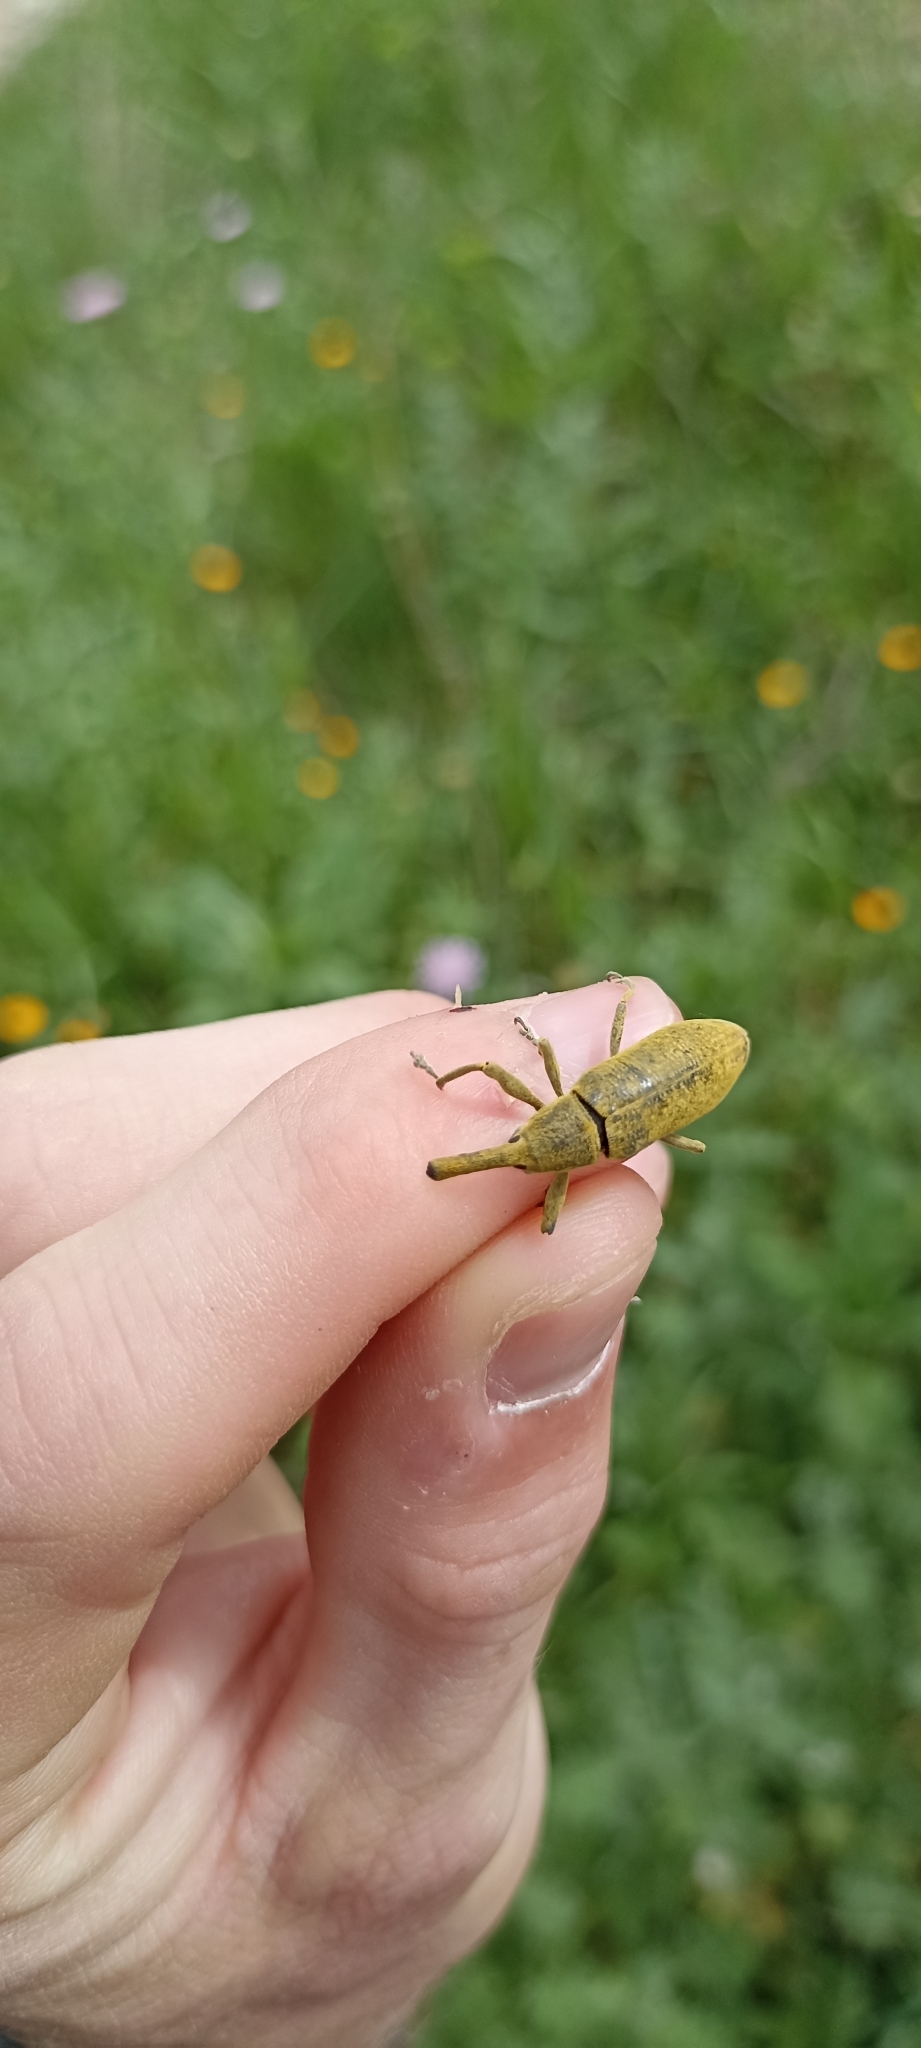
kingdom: Animalia
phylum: Arthropoda
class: Insecta
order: Coleoptera
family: Curculionidae
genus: Lixus
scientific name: Lixus pulverulentus
